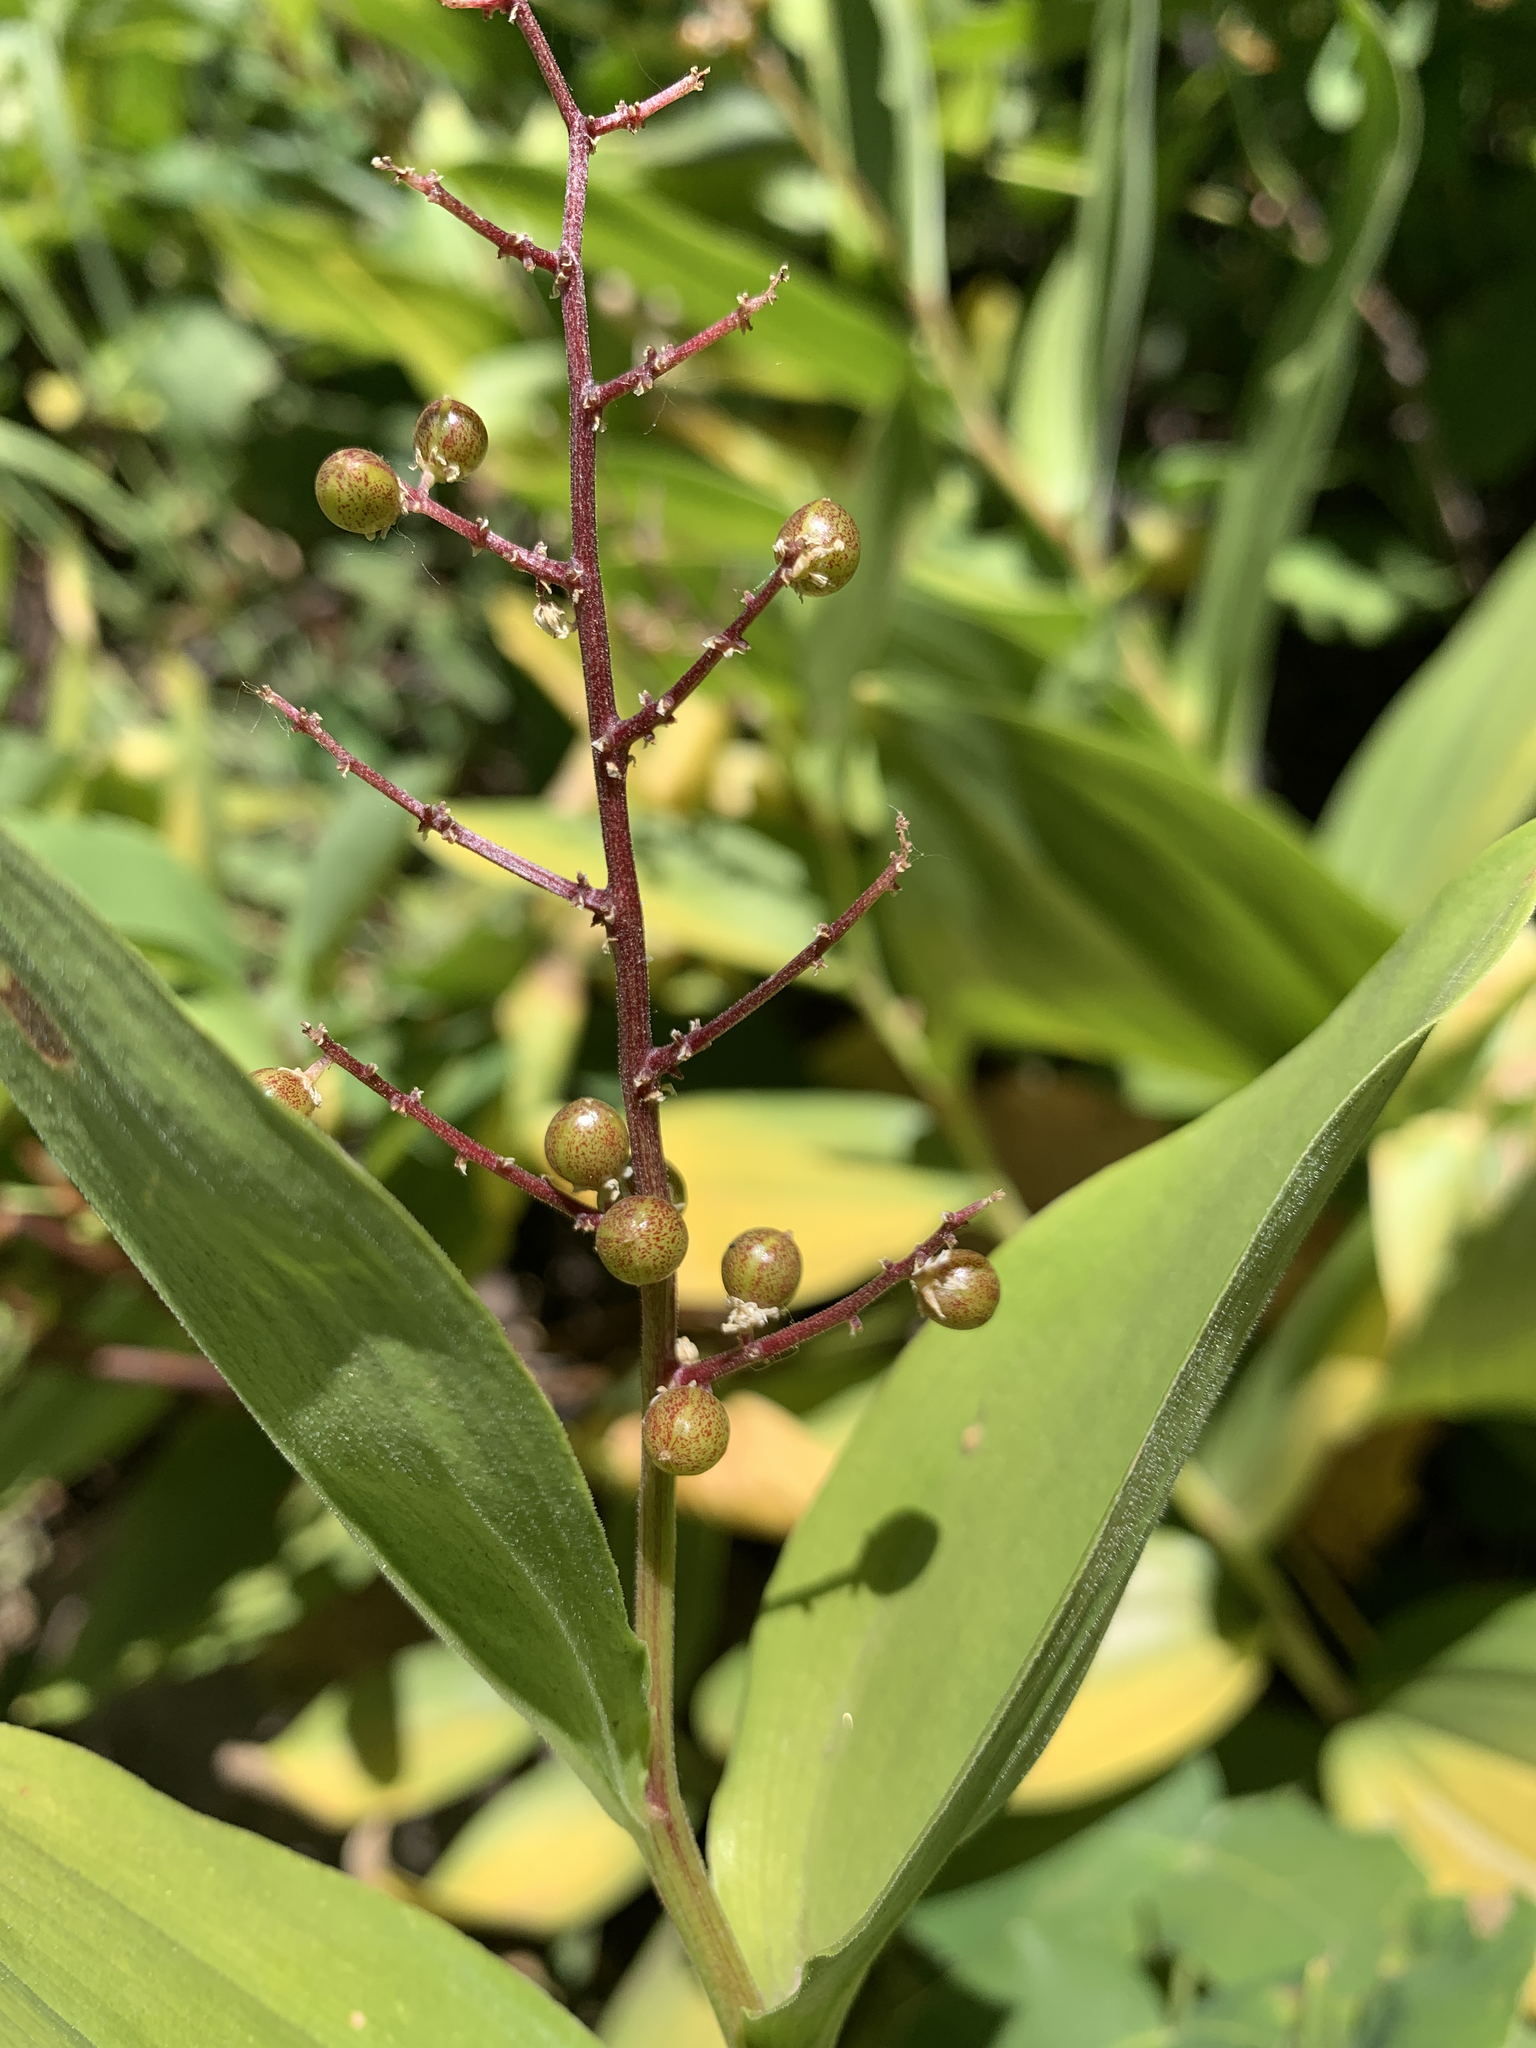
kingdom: Plantae
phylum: Tracheophyta
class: Liliopsida
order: Asparagales
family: Asparagaceae
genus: Maianthemum
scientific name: Maianthemum racemosum
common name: False spikenard
